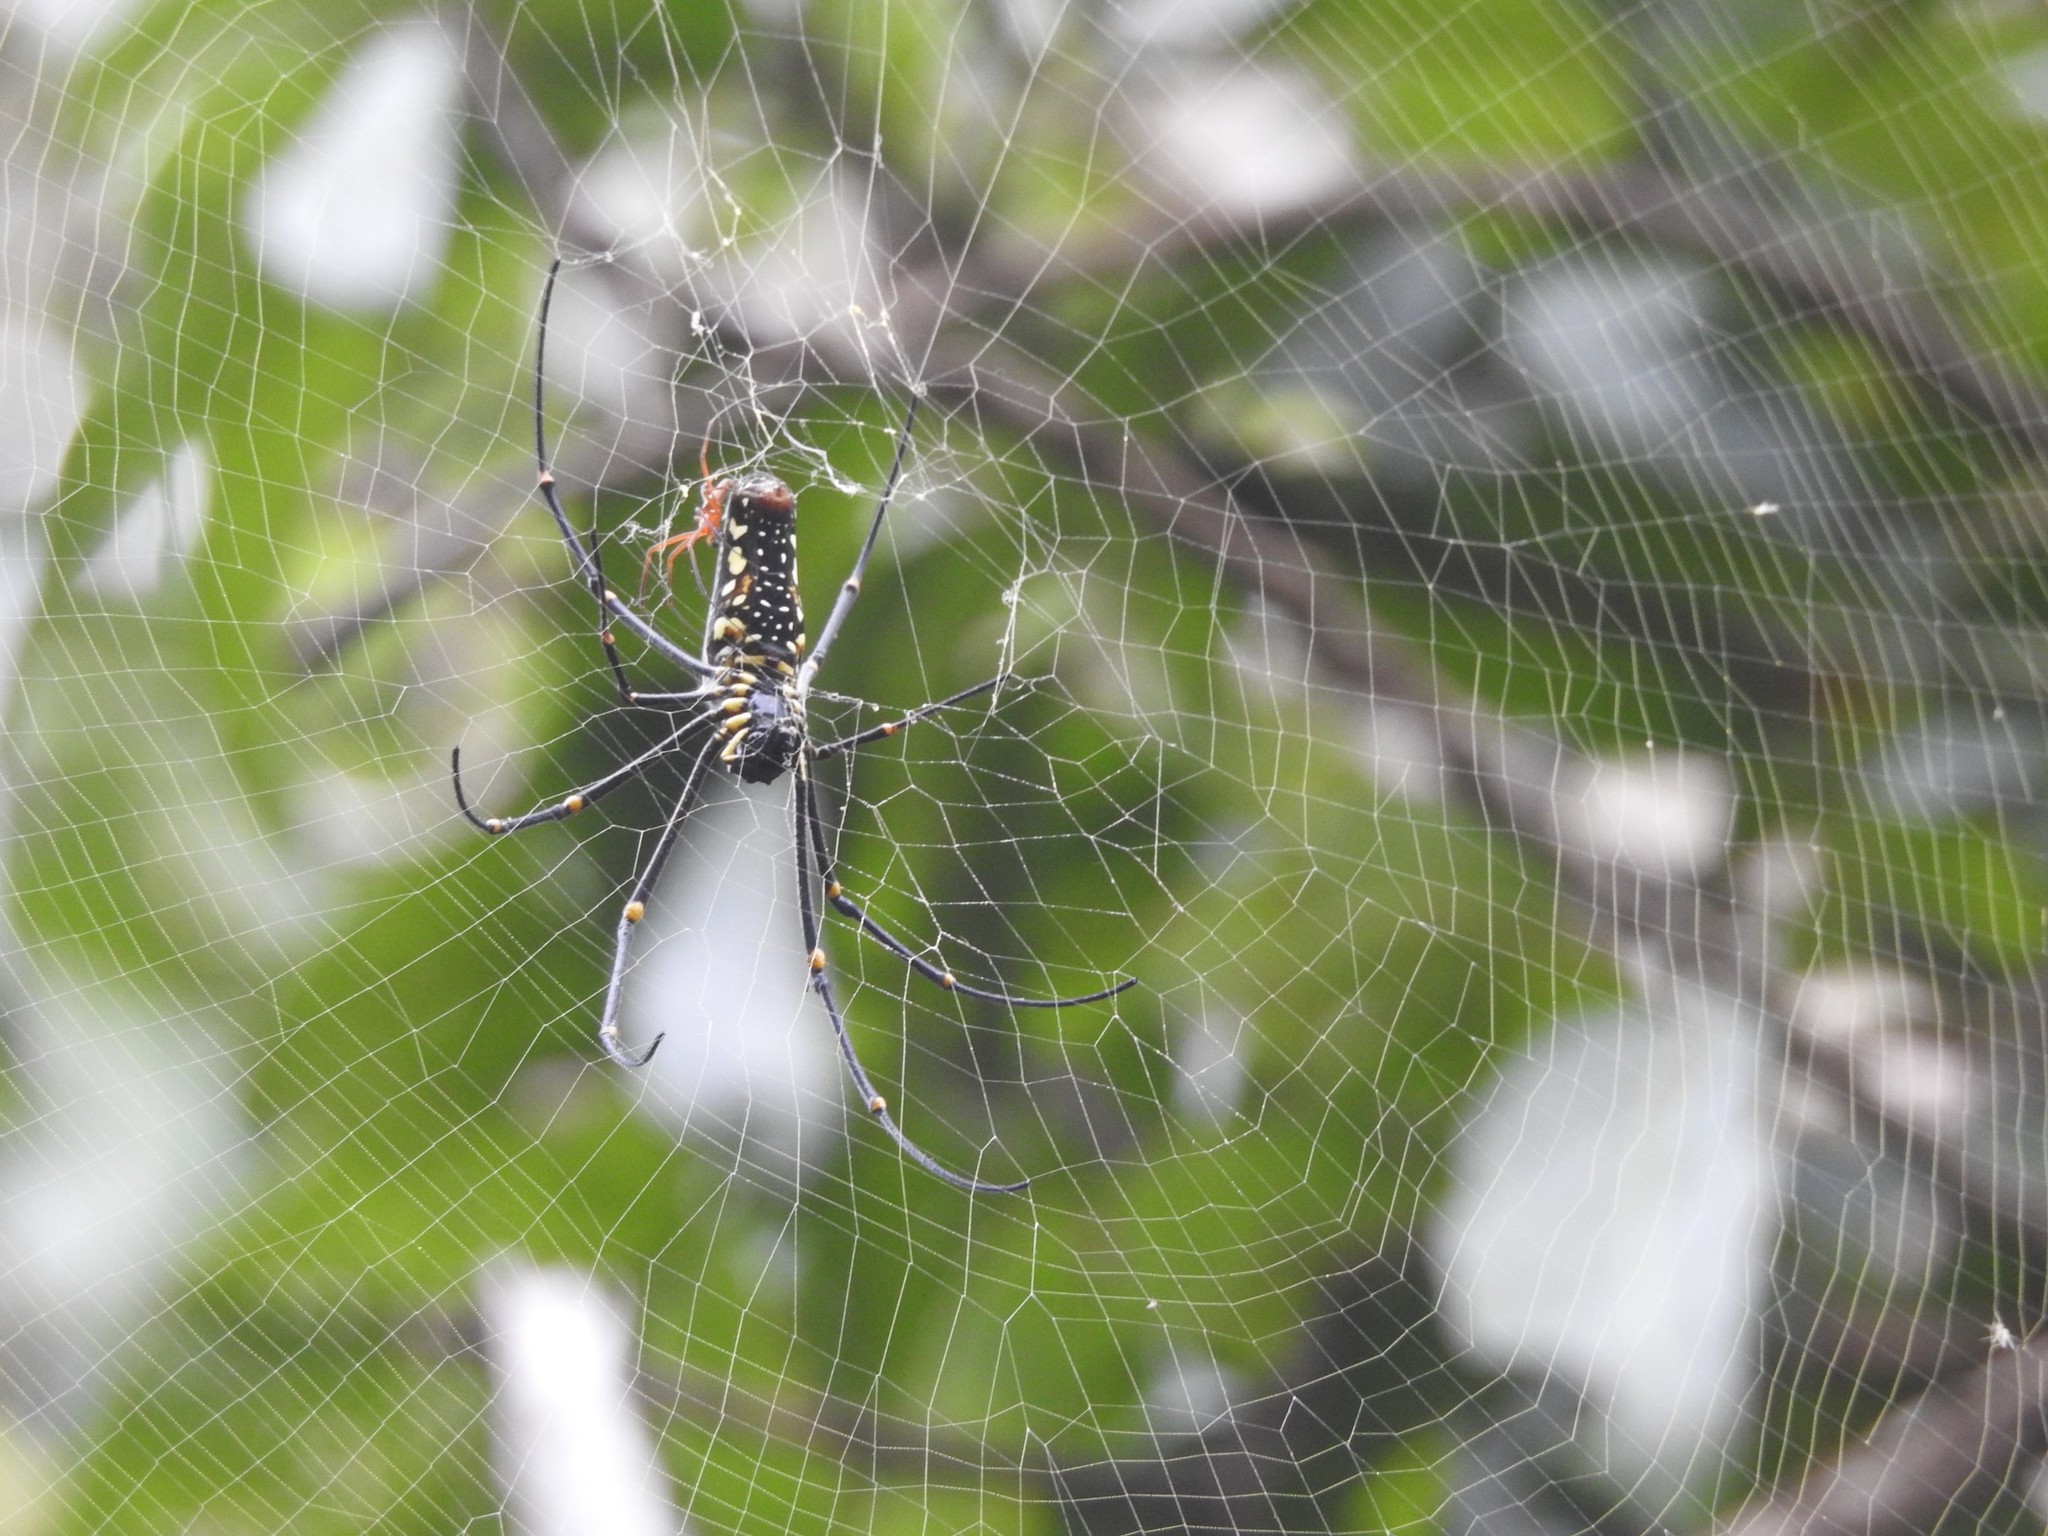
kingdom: Animalia
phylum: Arthropoda
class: Arachnida
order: Araneae
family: Araneidae
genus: Nephila
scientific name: Nephila pilipes
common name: Giant golden orb weaver
